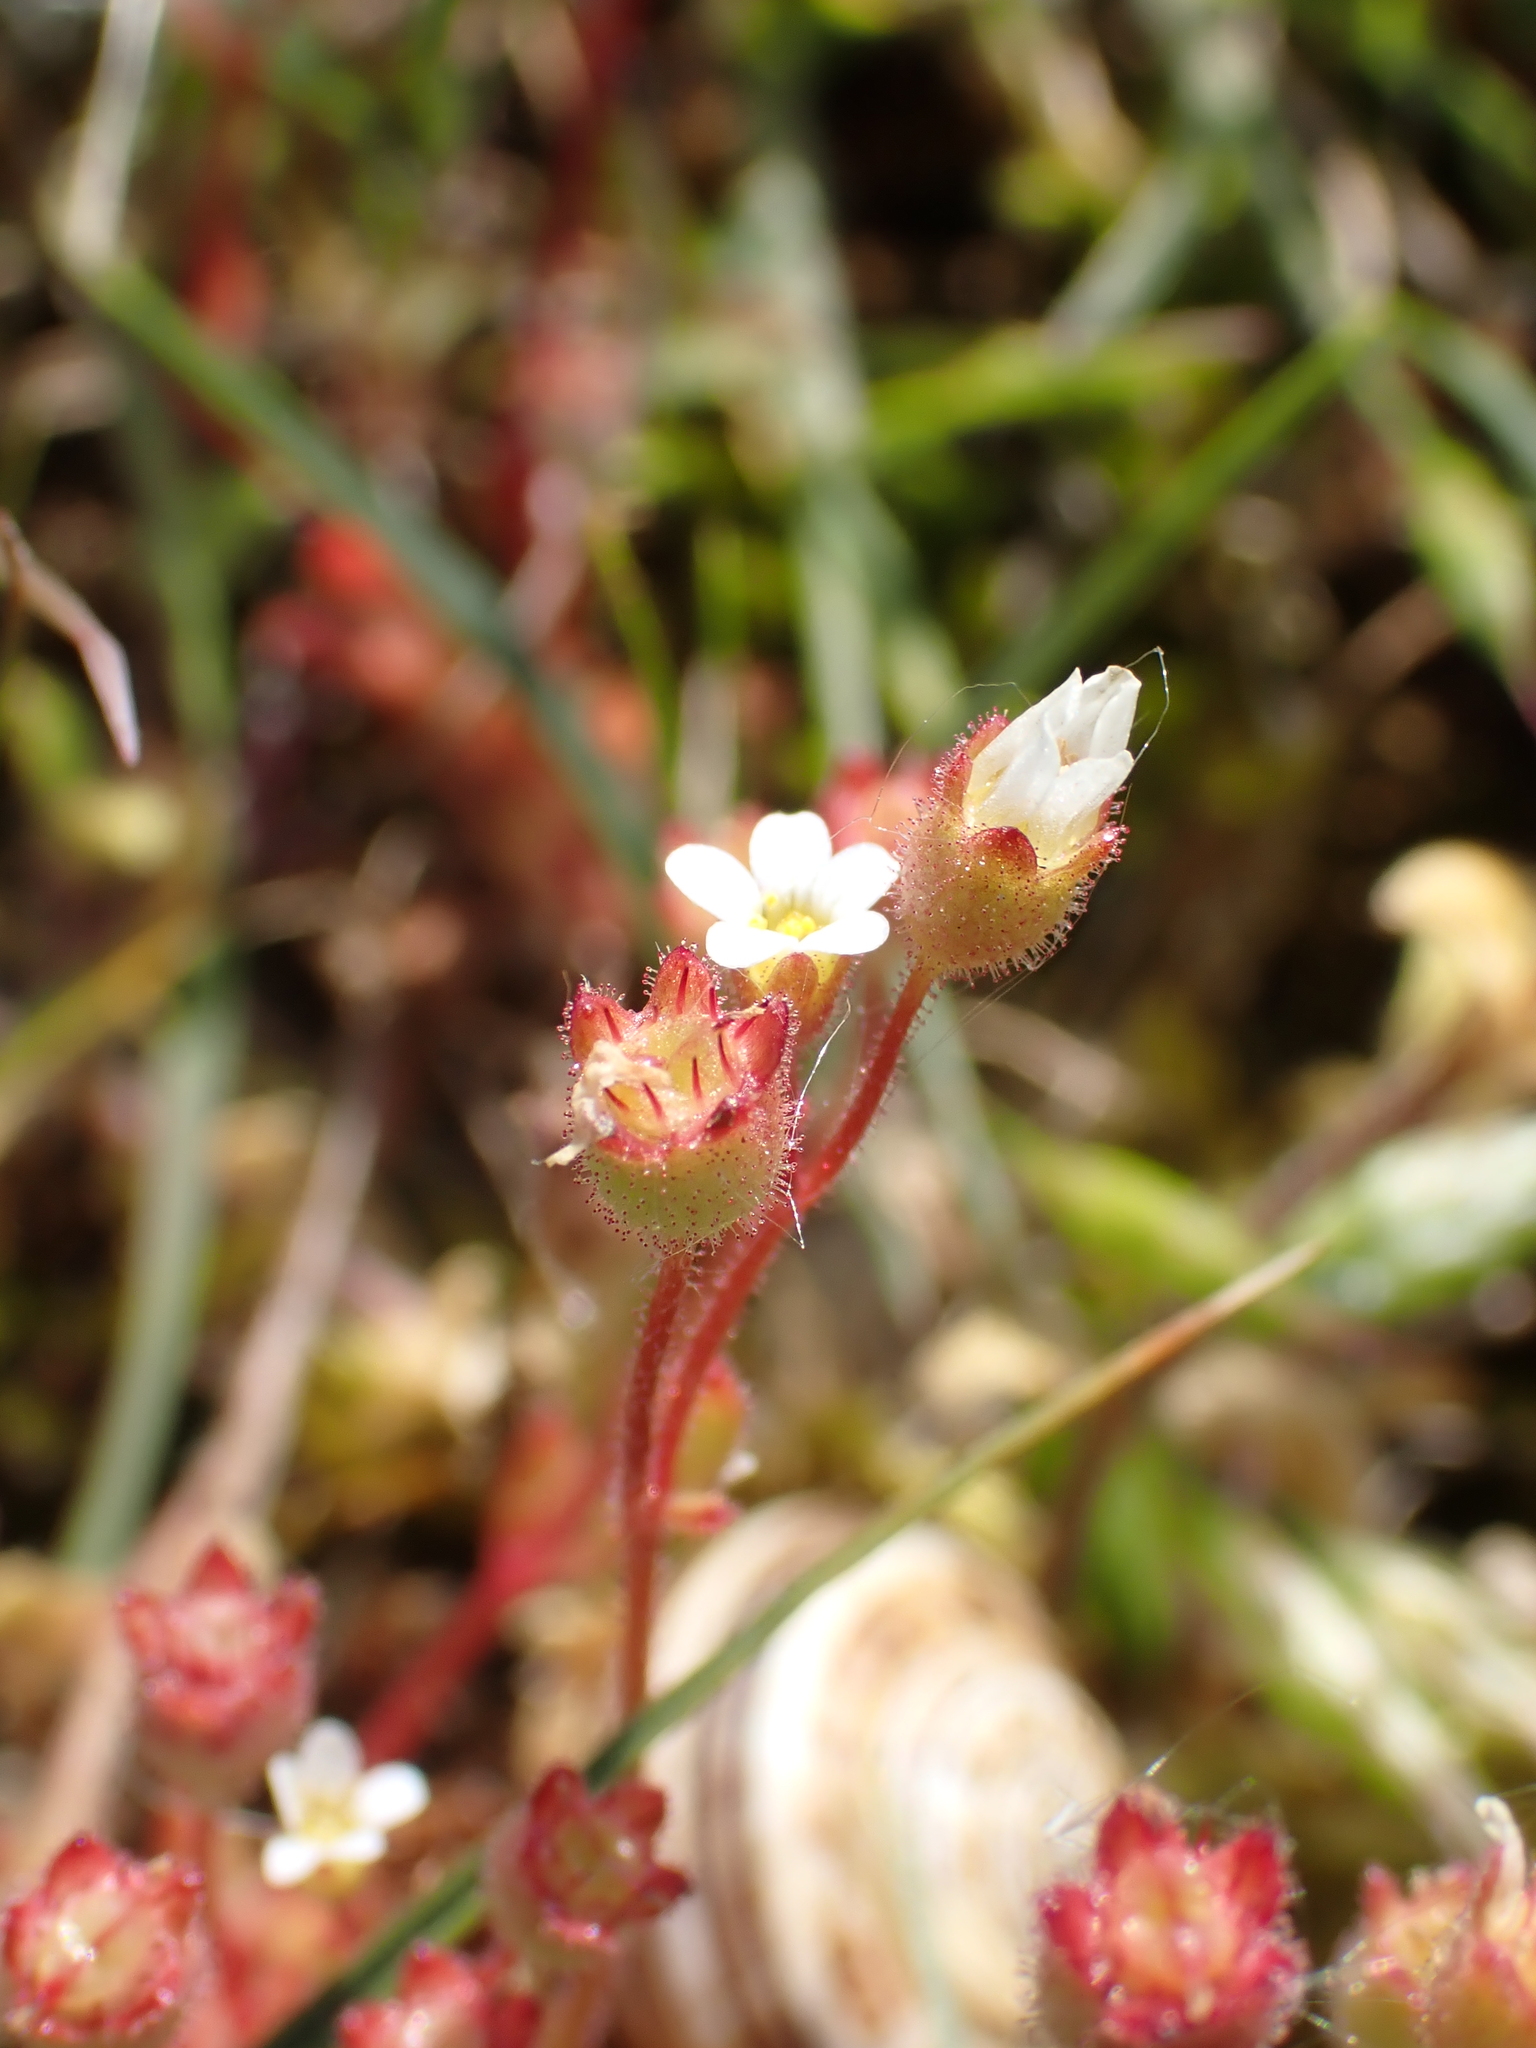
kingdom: Plantae
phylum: Tracheophyta
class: Magnoliopsida
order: Saxifragales
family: Saxifragaceae
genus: Saxifraga
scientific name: Saxifraga tridactylites
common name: Rue-leaved saxifrage
